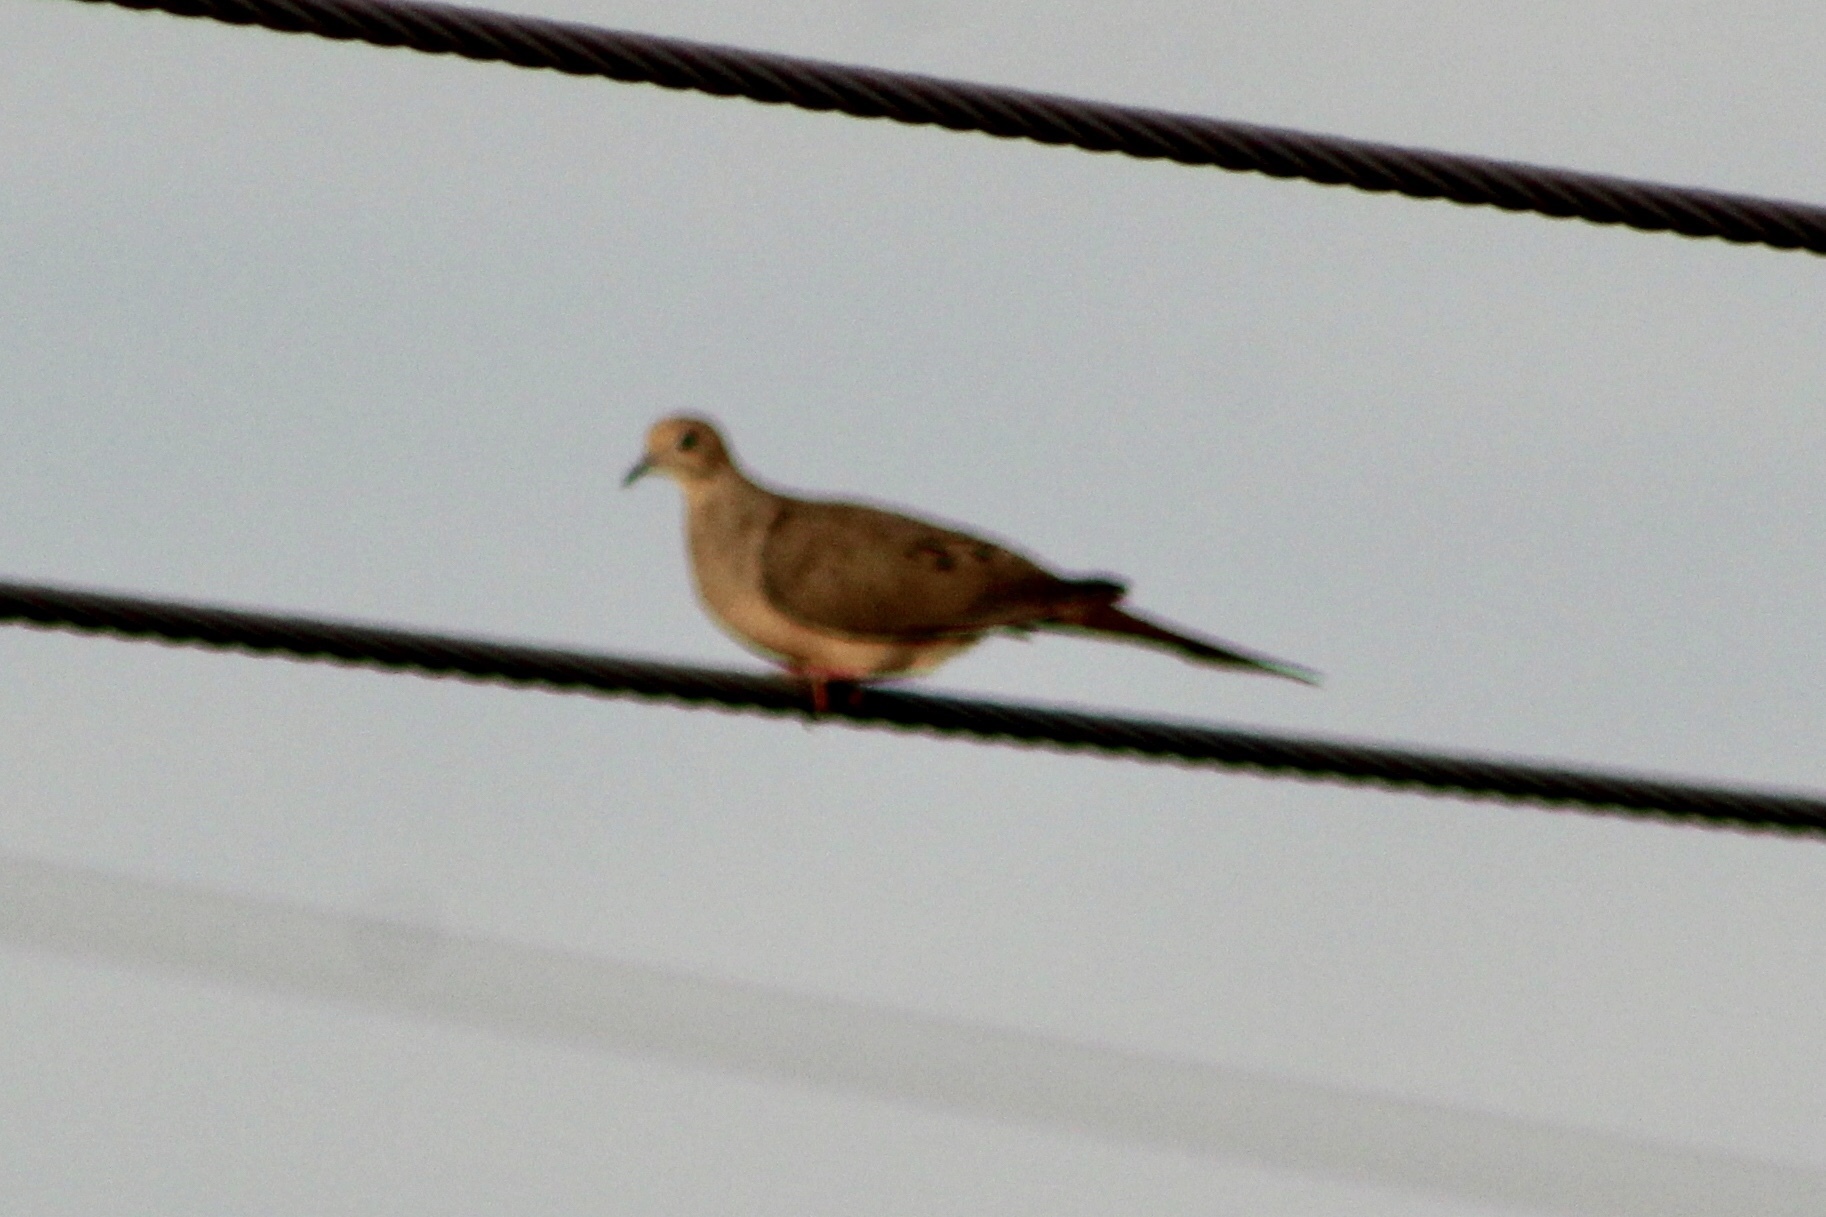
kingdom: Animalia
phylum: Chordata
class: Aves
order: Columbiformes
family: Columbidae
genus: Zenaida
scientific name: Zenaida macroura
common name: Mourning dove
